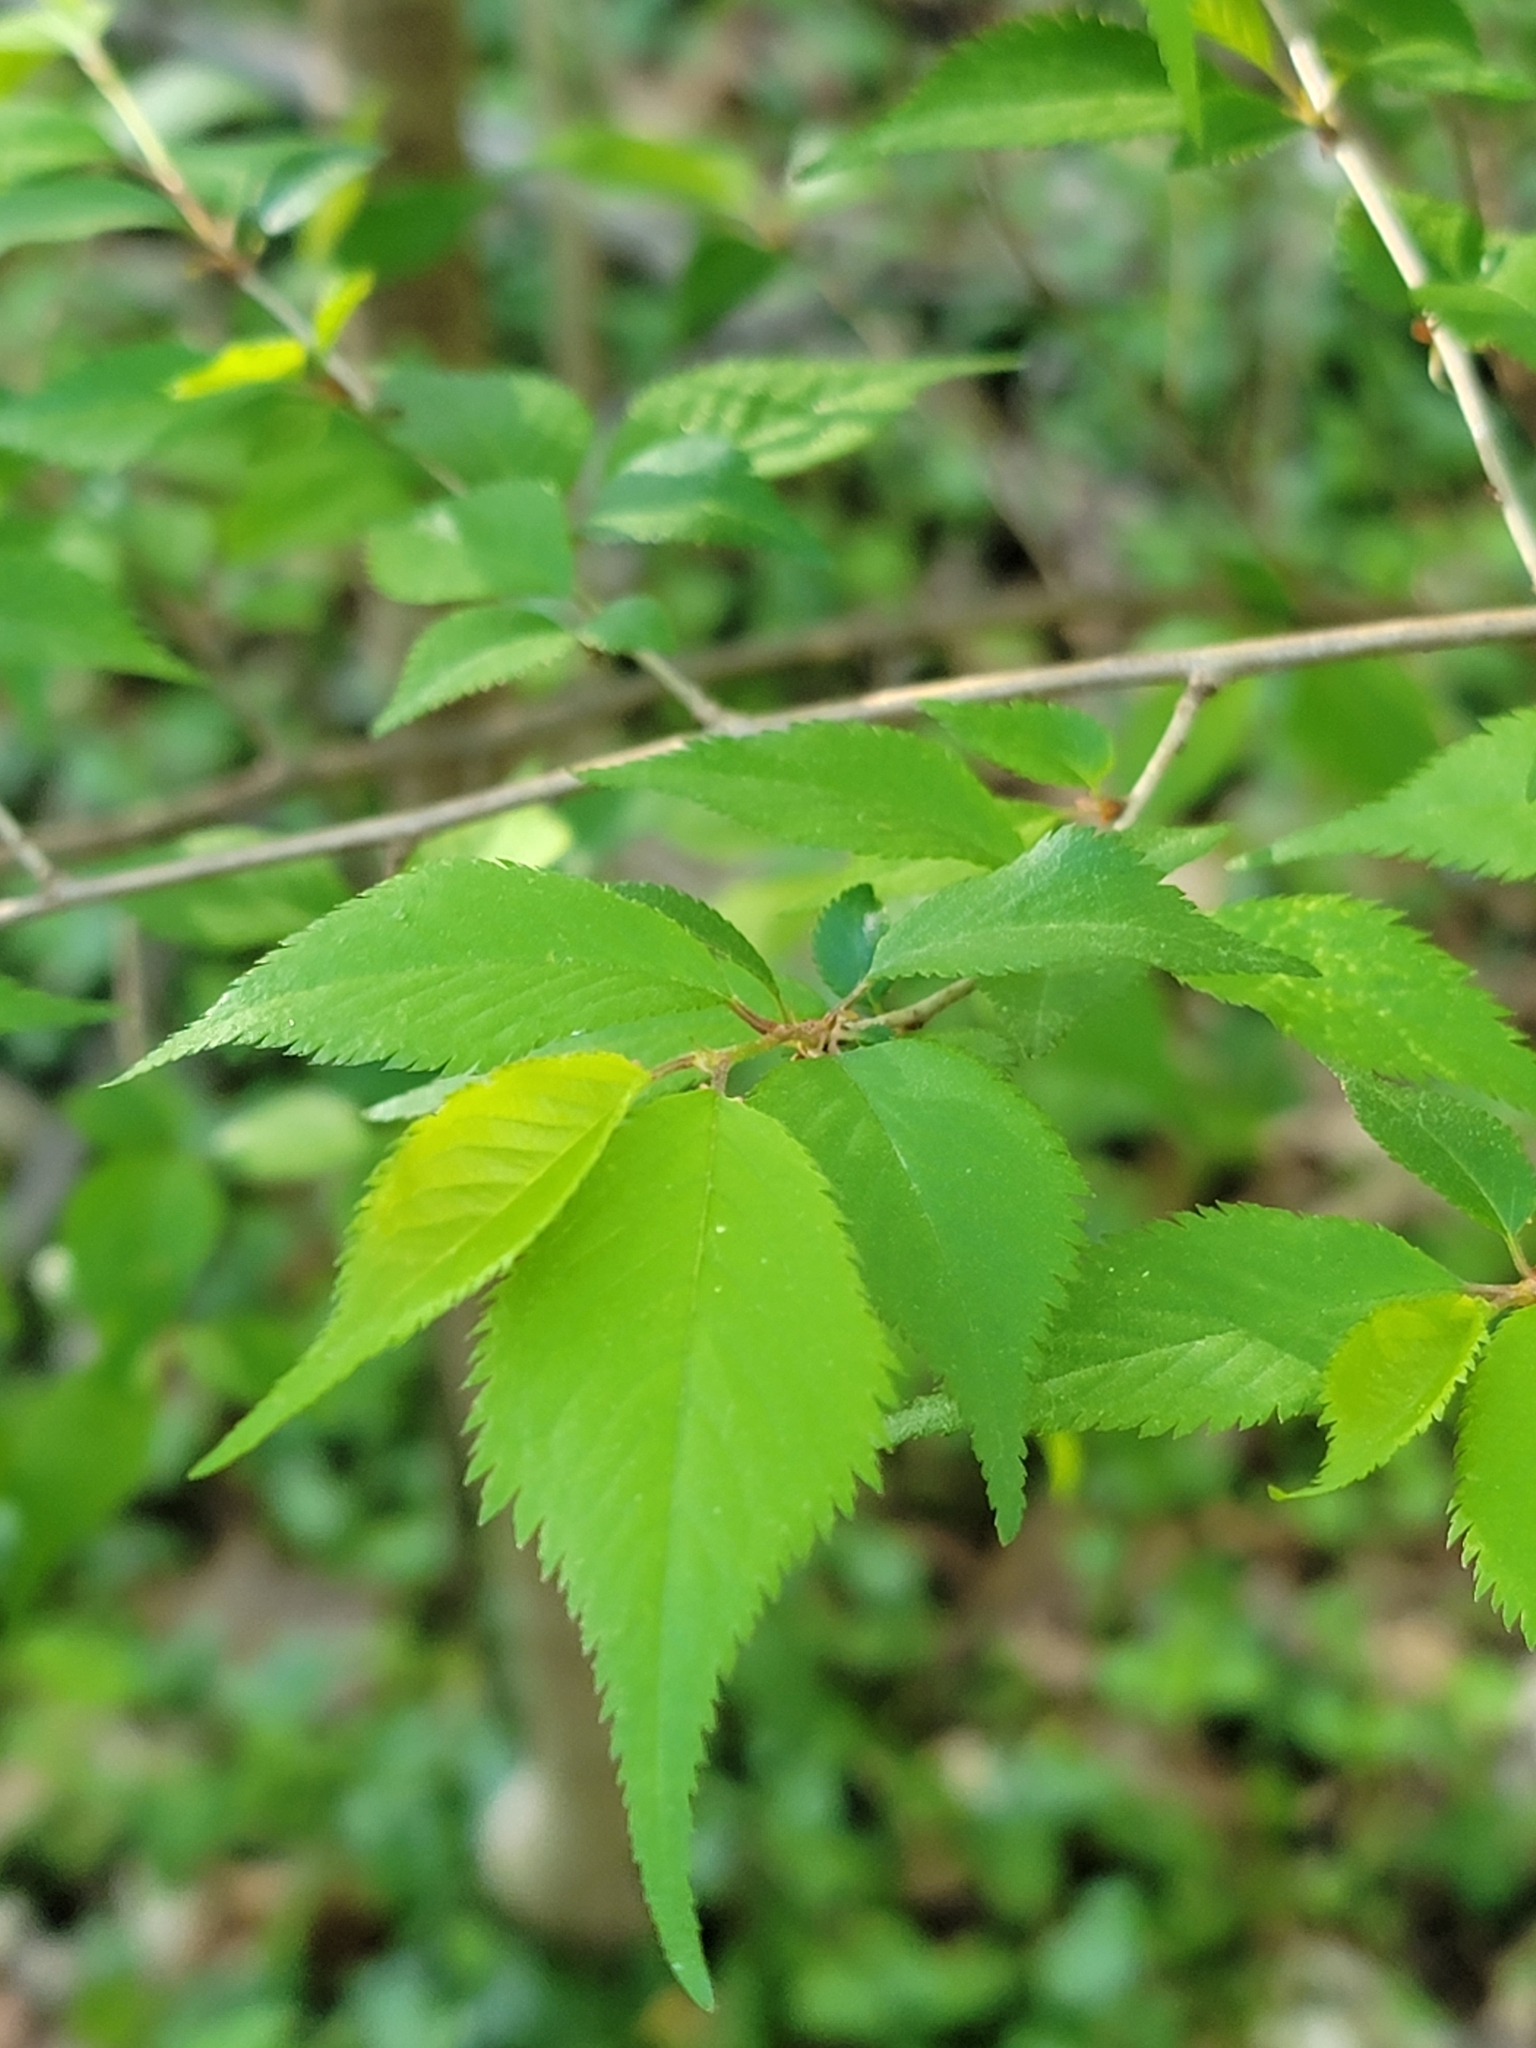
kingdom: Plantae
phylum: Tracheophyta
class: Magnoliopsida
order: Rosales
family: Rosaceae
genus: Prunus
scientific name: Prunus subhirtella
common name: Winter-flowering cherry
